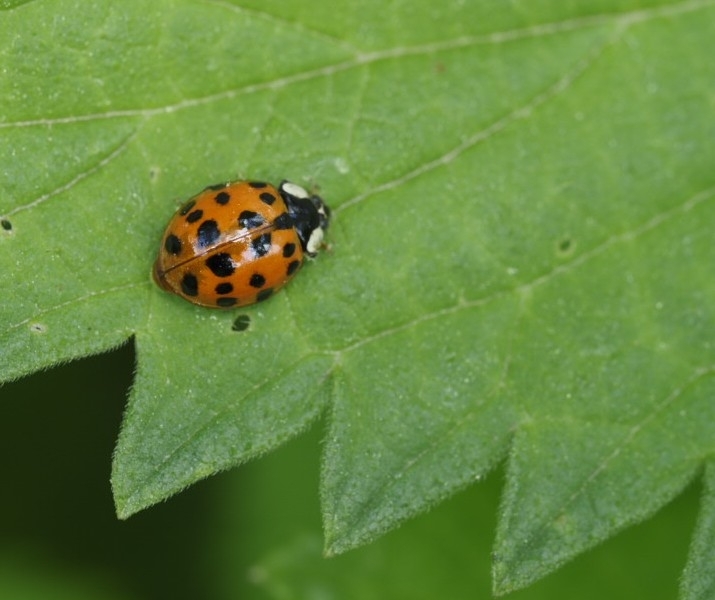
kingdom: Animalia
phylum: Arthropoda
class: Insecta
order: Coleoptera
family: Coccinellidae
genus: Harmonia
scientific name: Harmonia axyridis
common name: Harlequin ladybird
